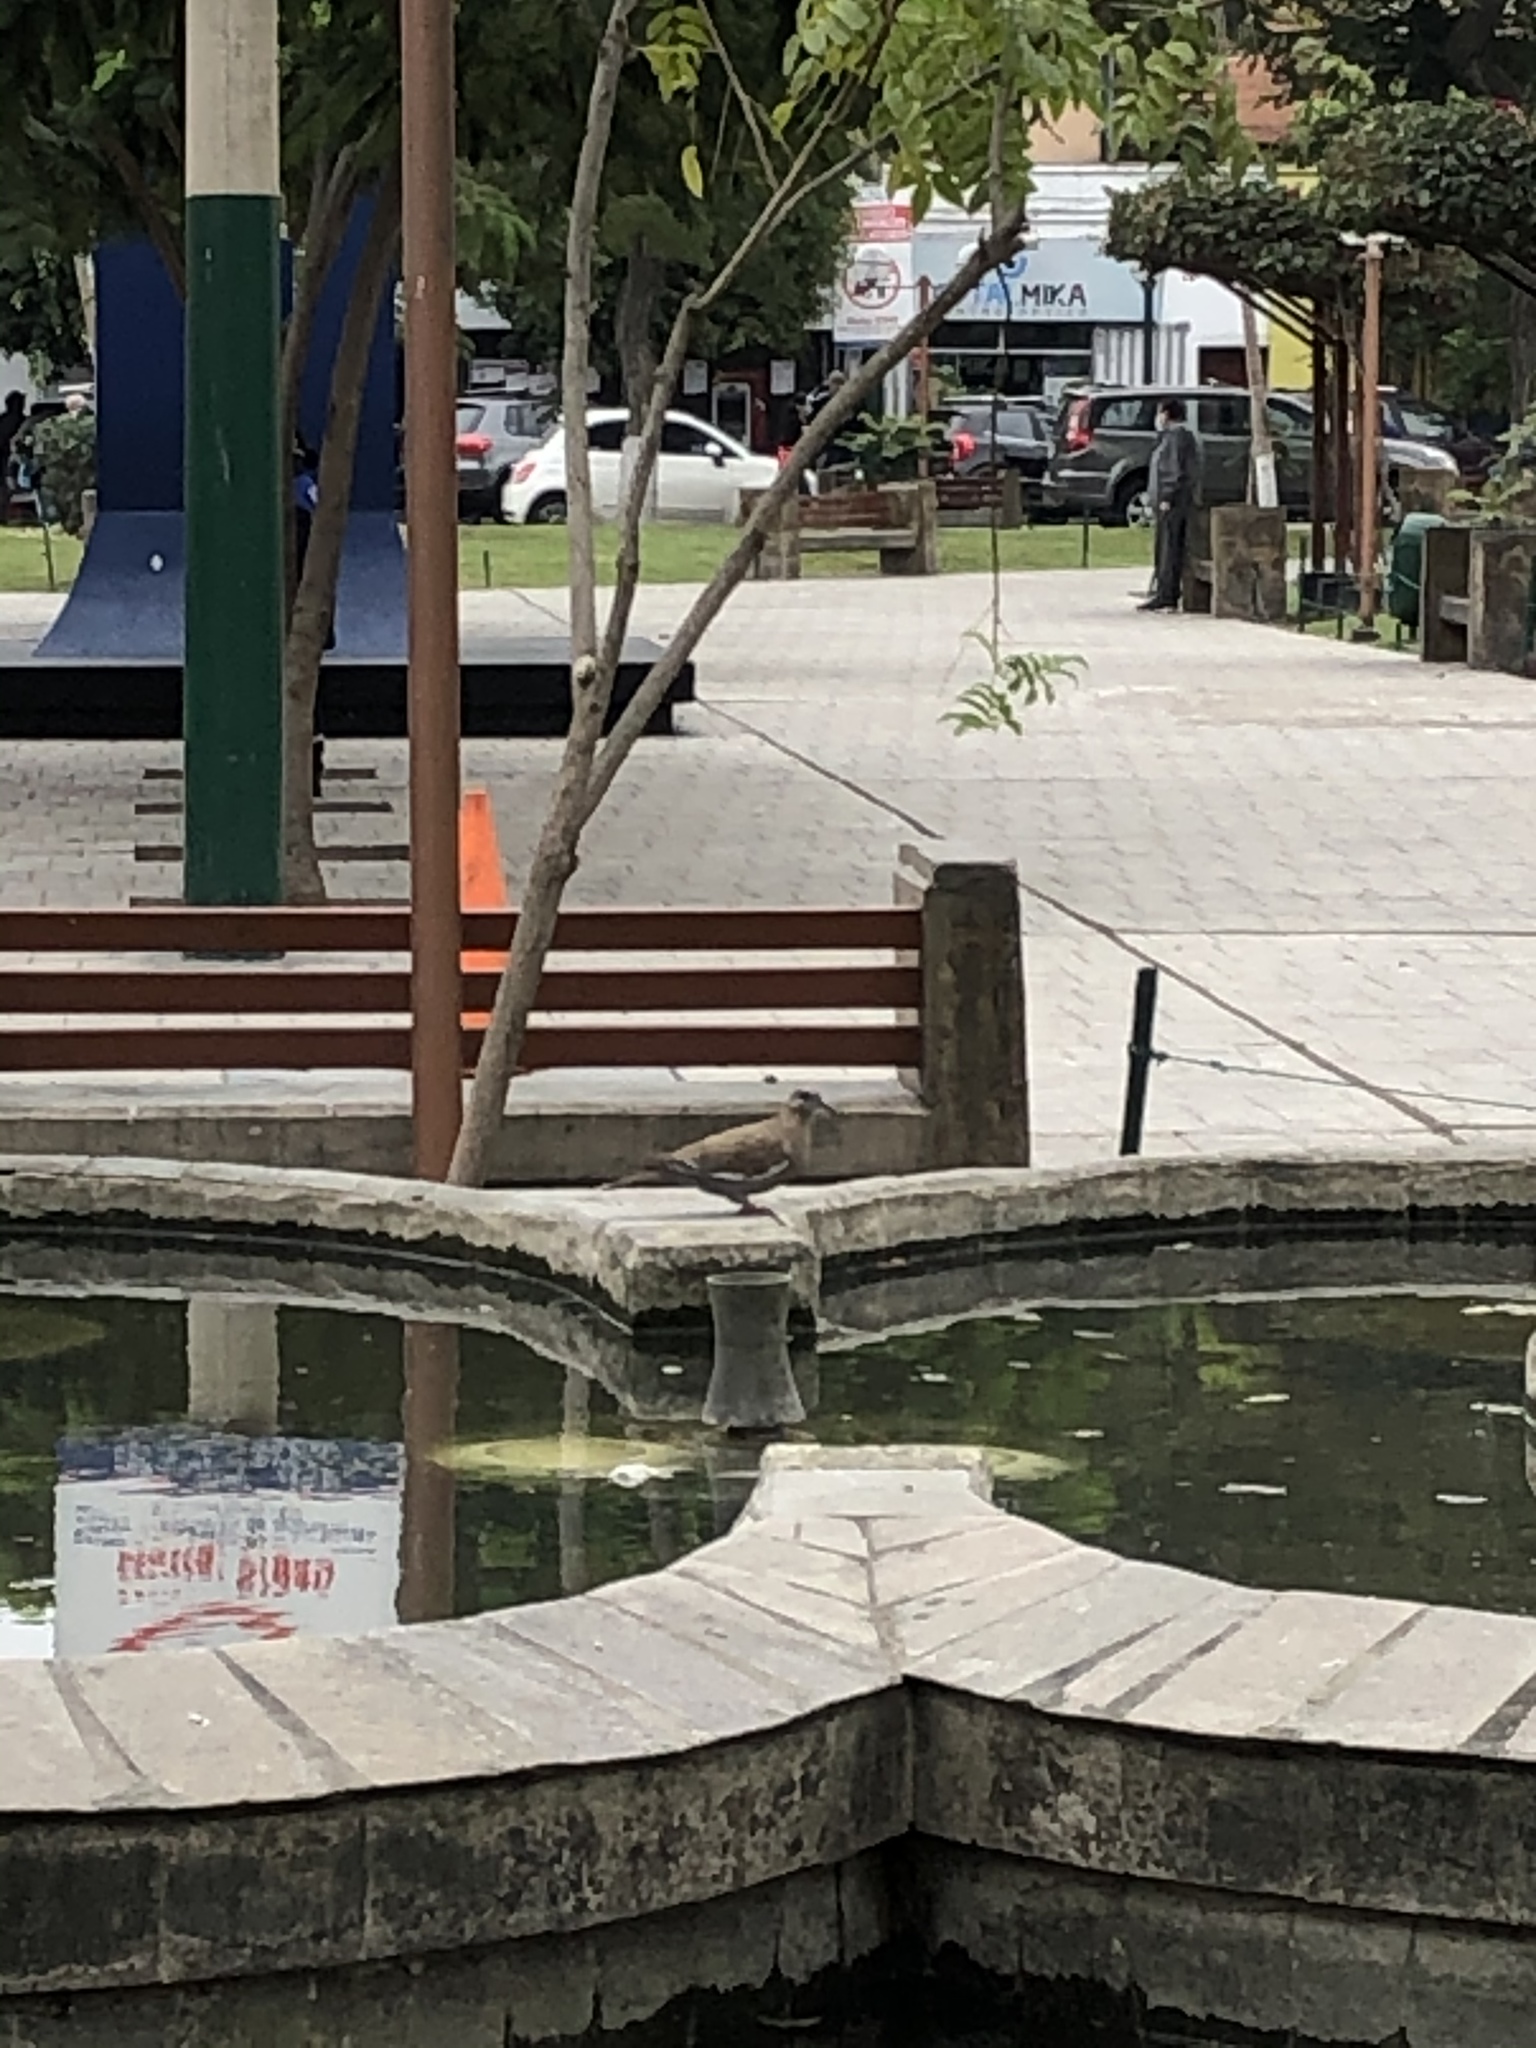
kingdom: Animalia
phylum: Chordata
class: Aves
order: Columbiformes
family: Columbidae
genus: Zenaida
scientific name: Zenaida meloda
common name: West peruvian dove
